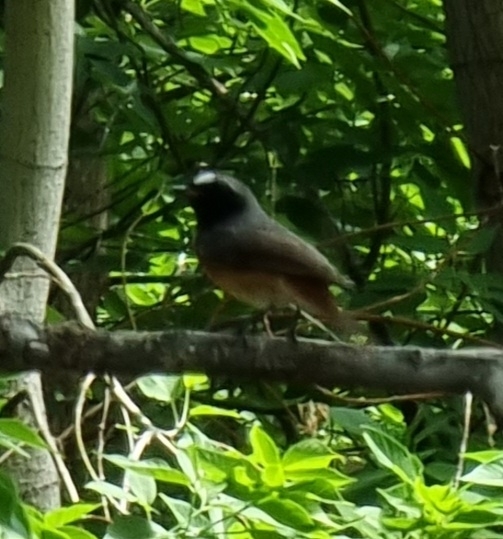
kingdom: Animalia
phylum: Chordata
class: Aves
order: Passeriformes
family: Muscicapidae
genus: Phoenicurus
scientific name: Phoenicurus phoenicurus
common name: Common redstart
